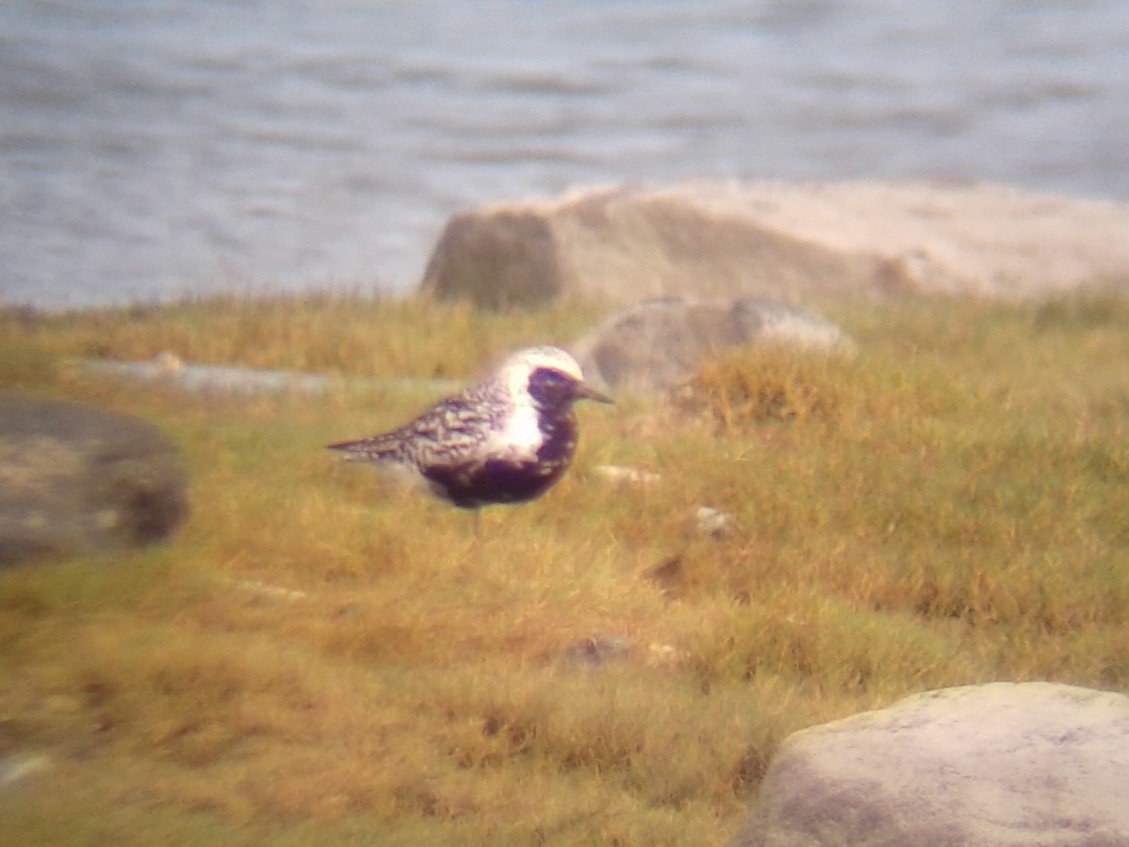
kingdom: Animalia
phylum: Chordata
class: Aves
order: Charadriiformes
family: Charadriidae
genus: Pluvialis
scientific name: Pluvialis squatarola
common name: Grey plover
